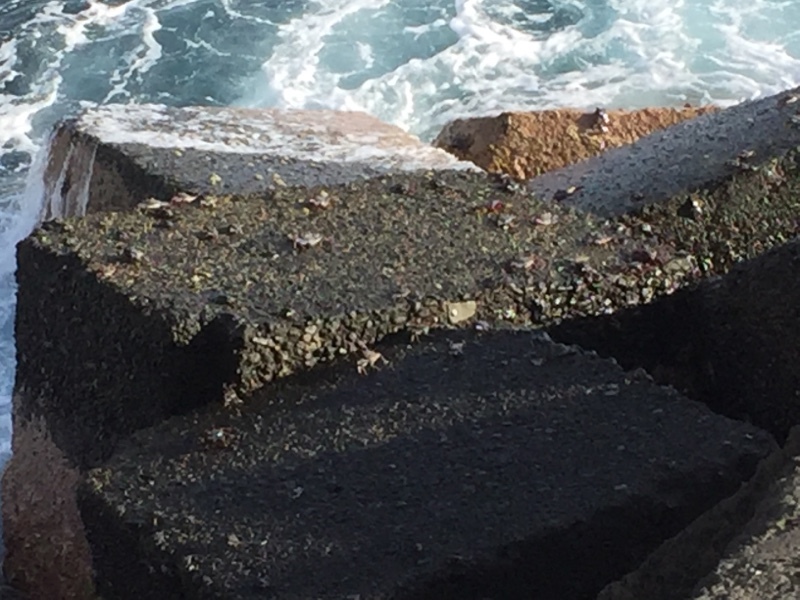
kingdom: Animalia
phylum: Arthropoda
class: Malacostraca
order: Decapoda
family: Grapsidae
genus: Grapsus
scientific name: Grapsus adscensionis
